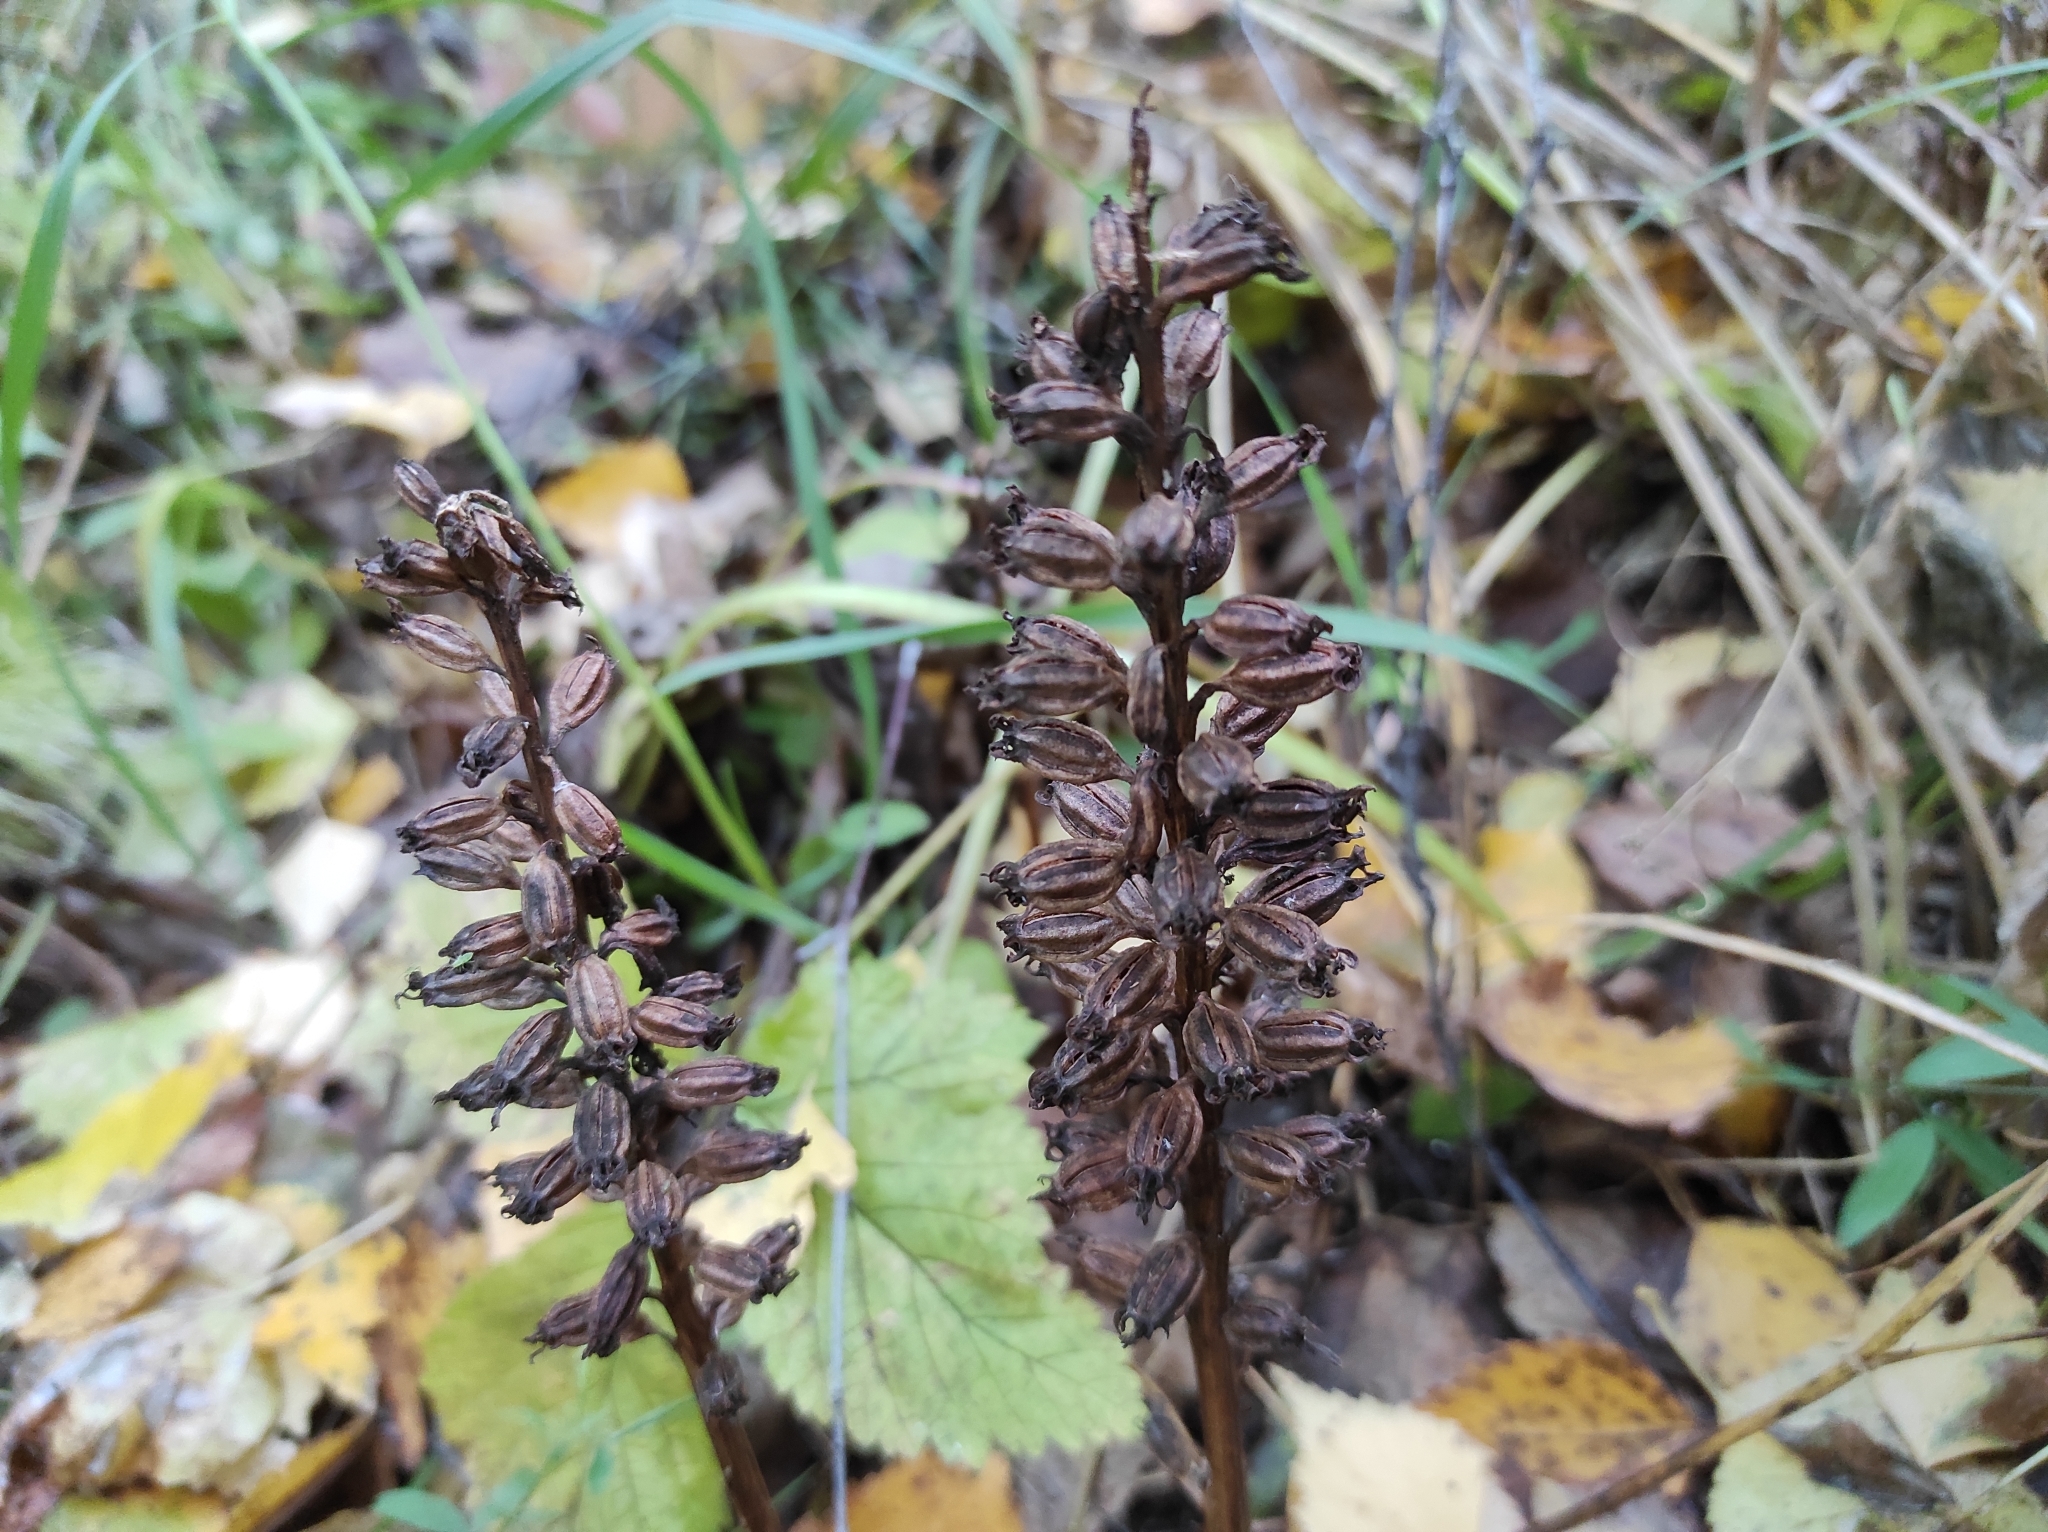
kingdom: Plantae
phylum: Tracheophyta
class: Liliopsida
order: Asparagales
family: Orchidaceae
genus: Neottia
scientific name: Neottia nidus-avis
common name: Bird's-nest orchid
